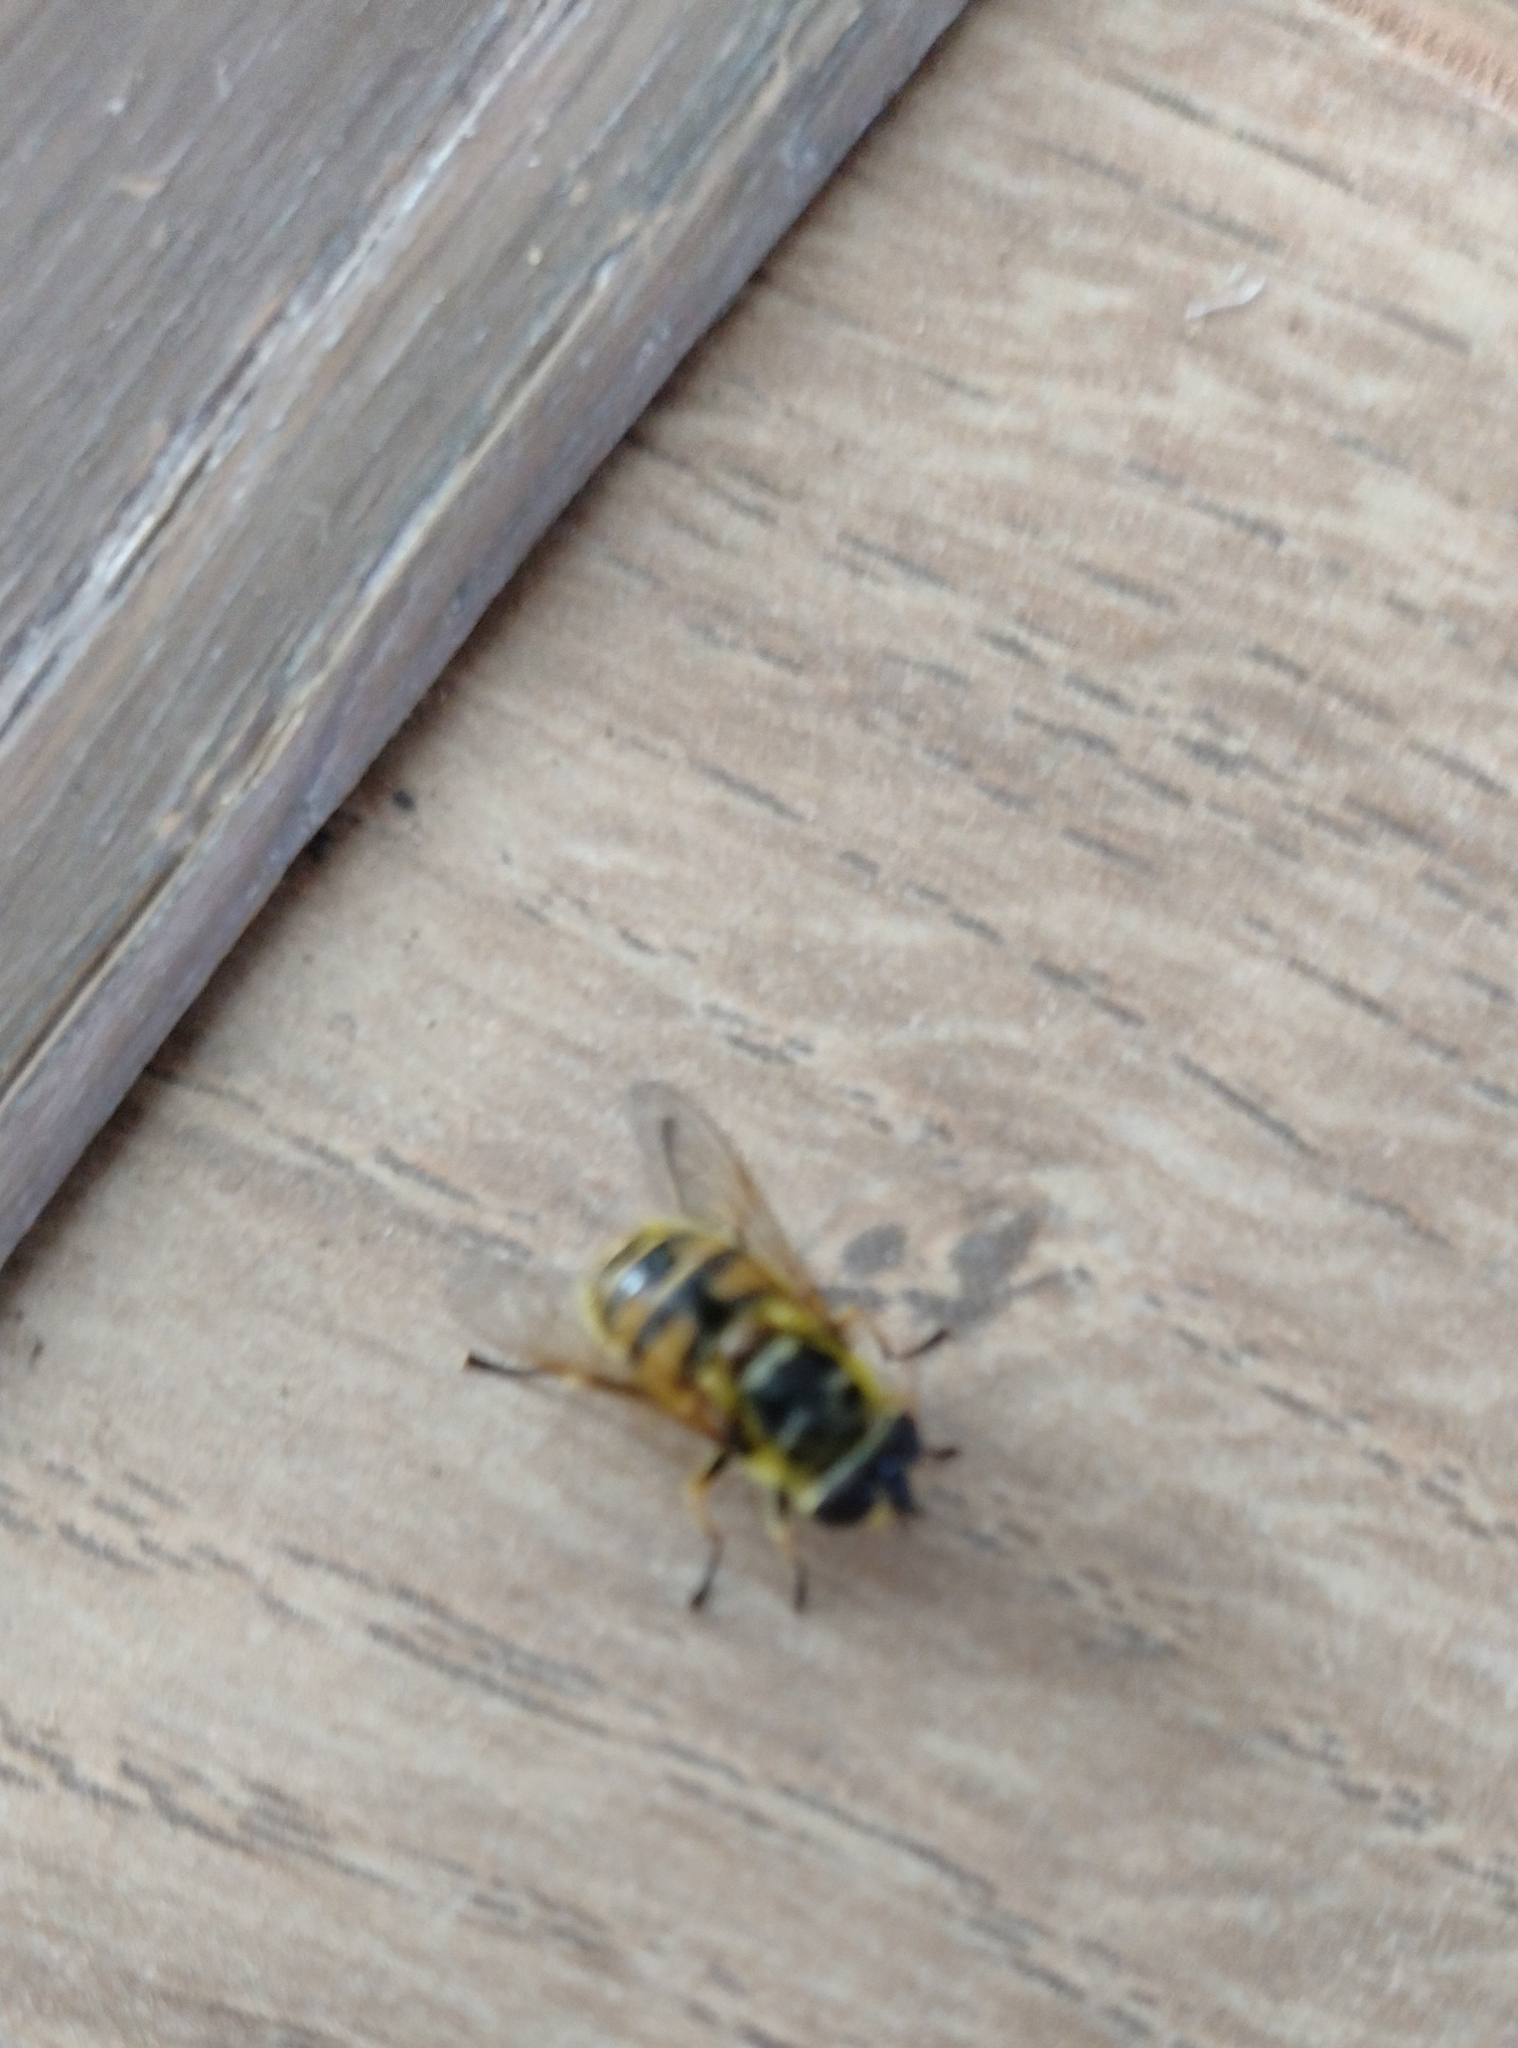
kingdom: Animalia
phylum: Arthropoda
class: Insecta
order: Diptera
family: Syrphidae
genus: Myathropa
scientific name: Myathropa florea
